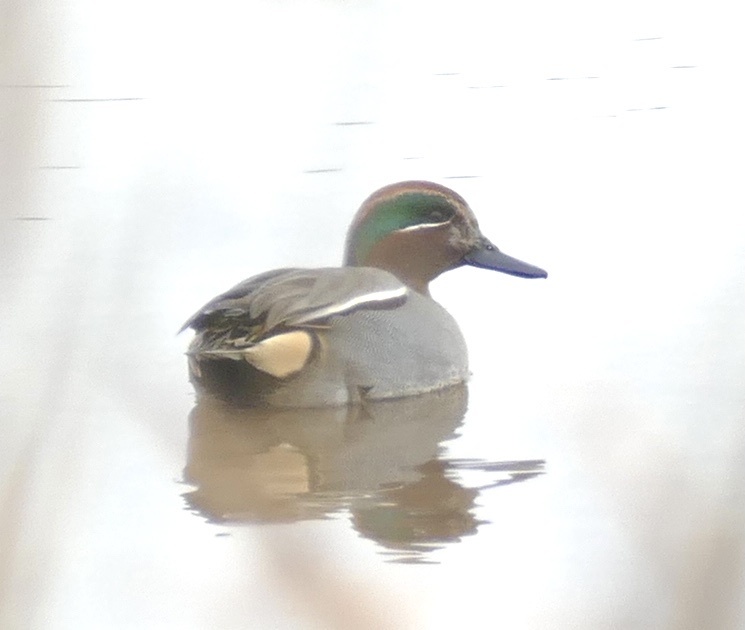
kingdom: Animalia
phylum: Chordata
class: Aves
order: Anseriformes
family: Anatidae
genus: Anas
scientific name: Anas crecca
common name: Eurasian teal
